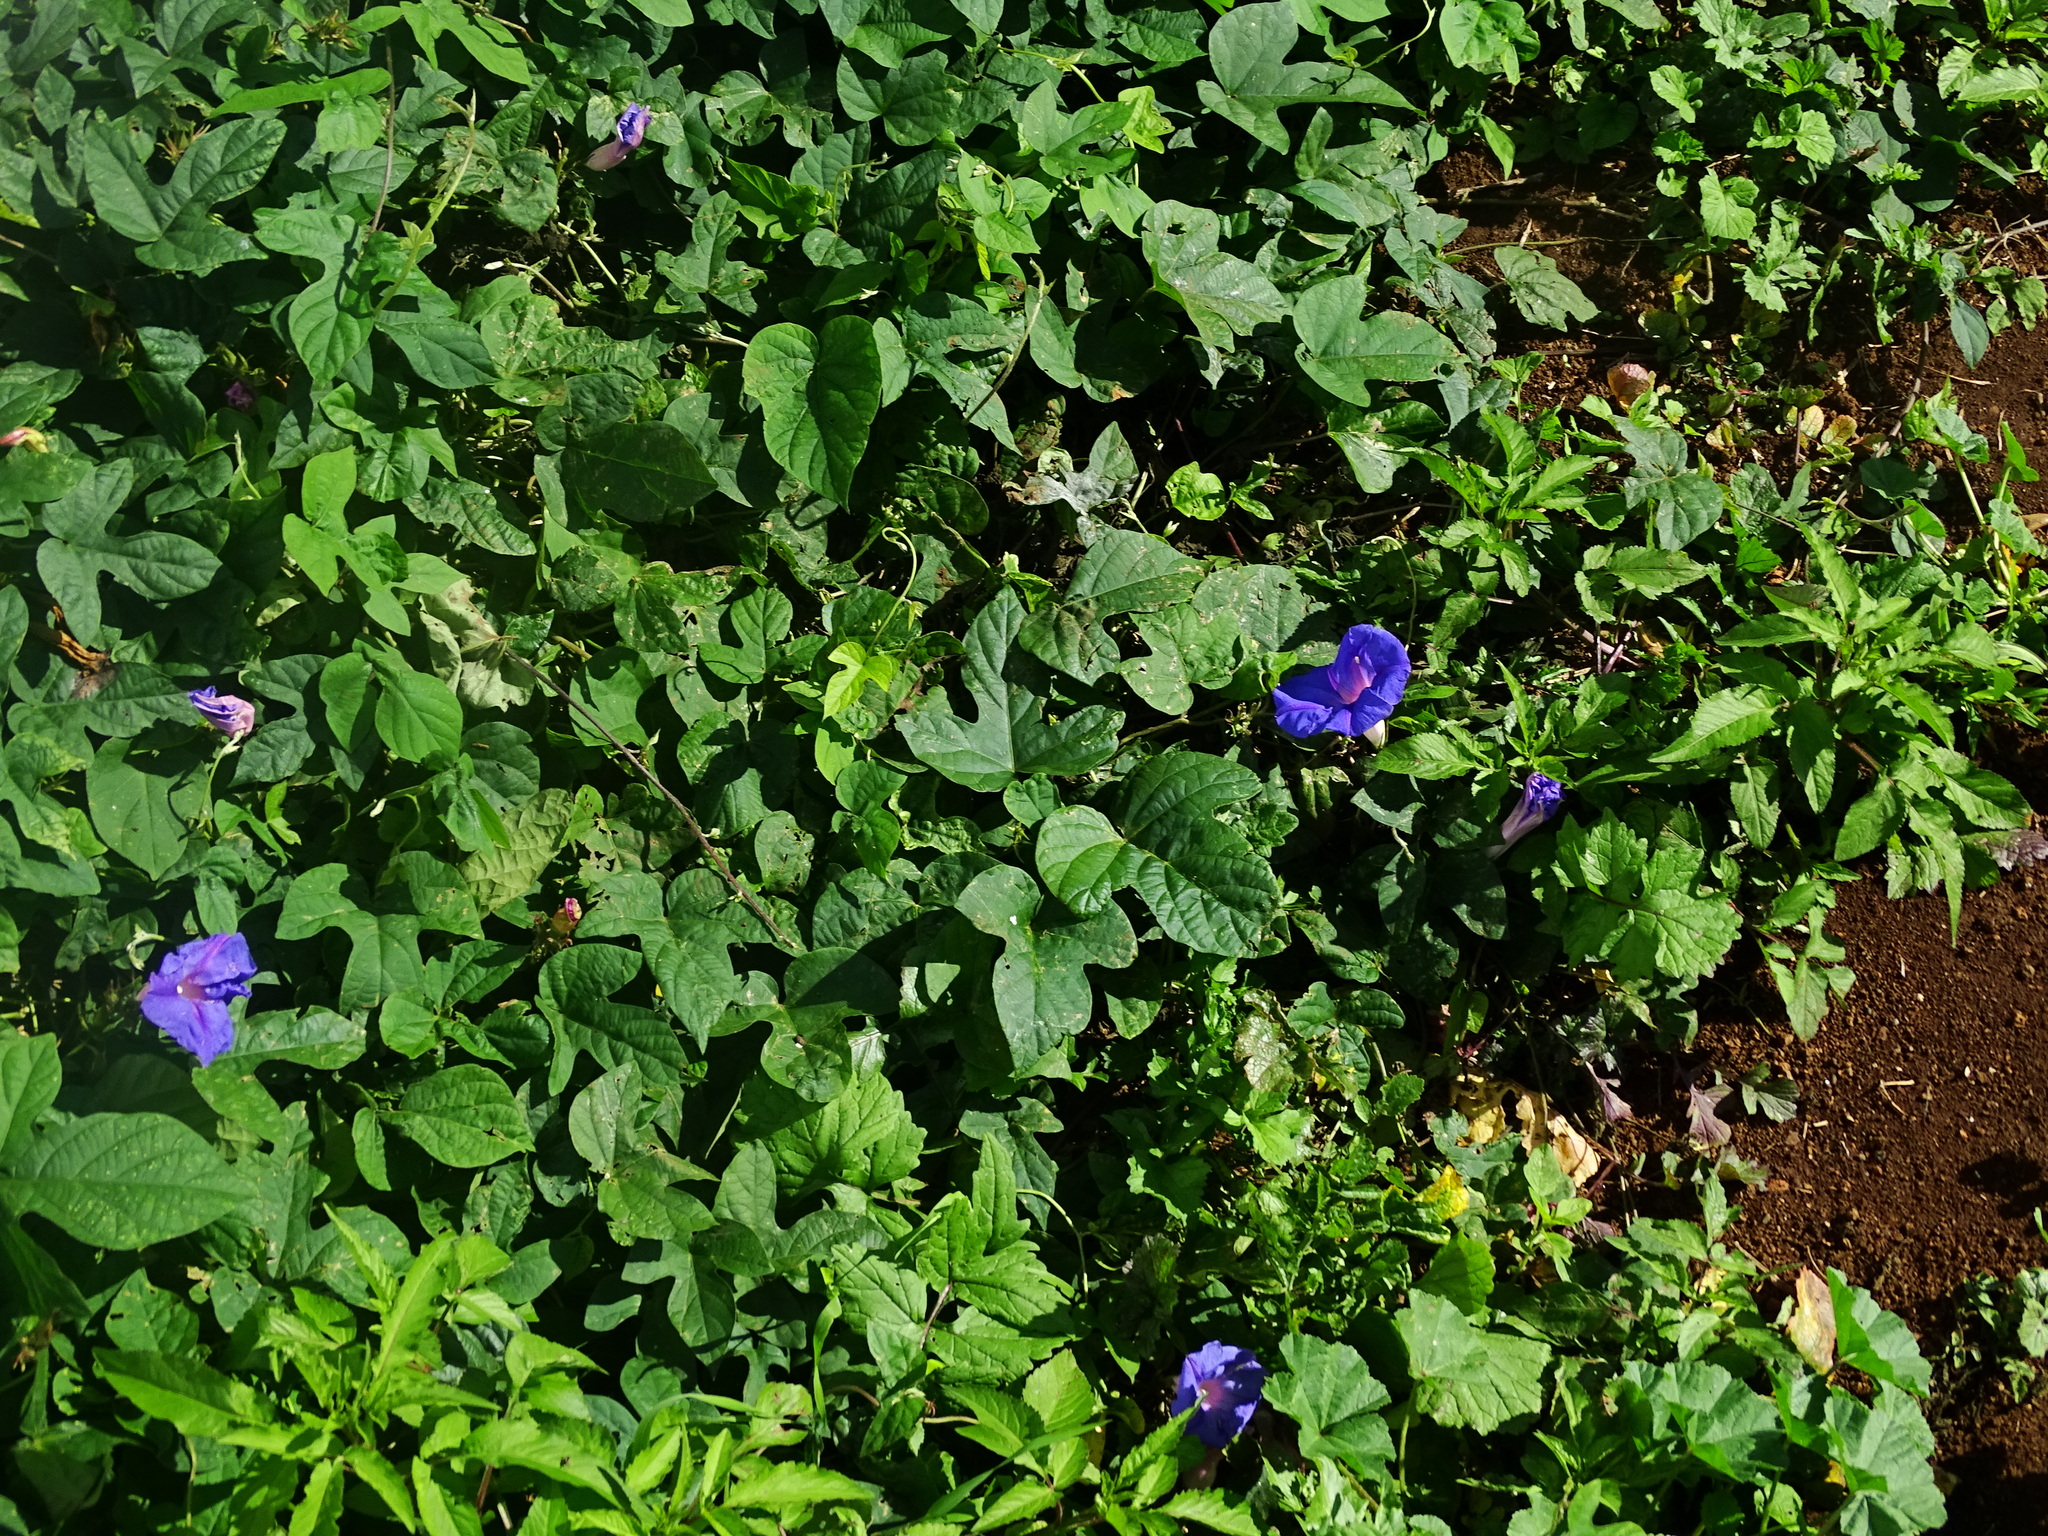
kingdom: Plantae
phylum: Tracheophyta
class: Magnoliopsida
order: Solanales
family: Convolvulaceae
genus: Ipomoea
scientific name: Ipomoea indica
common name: Blue dawnflower
